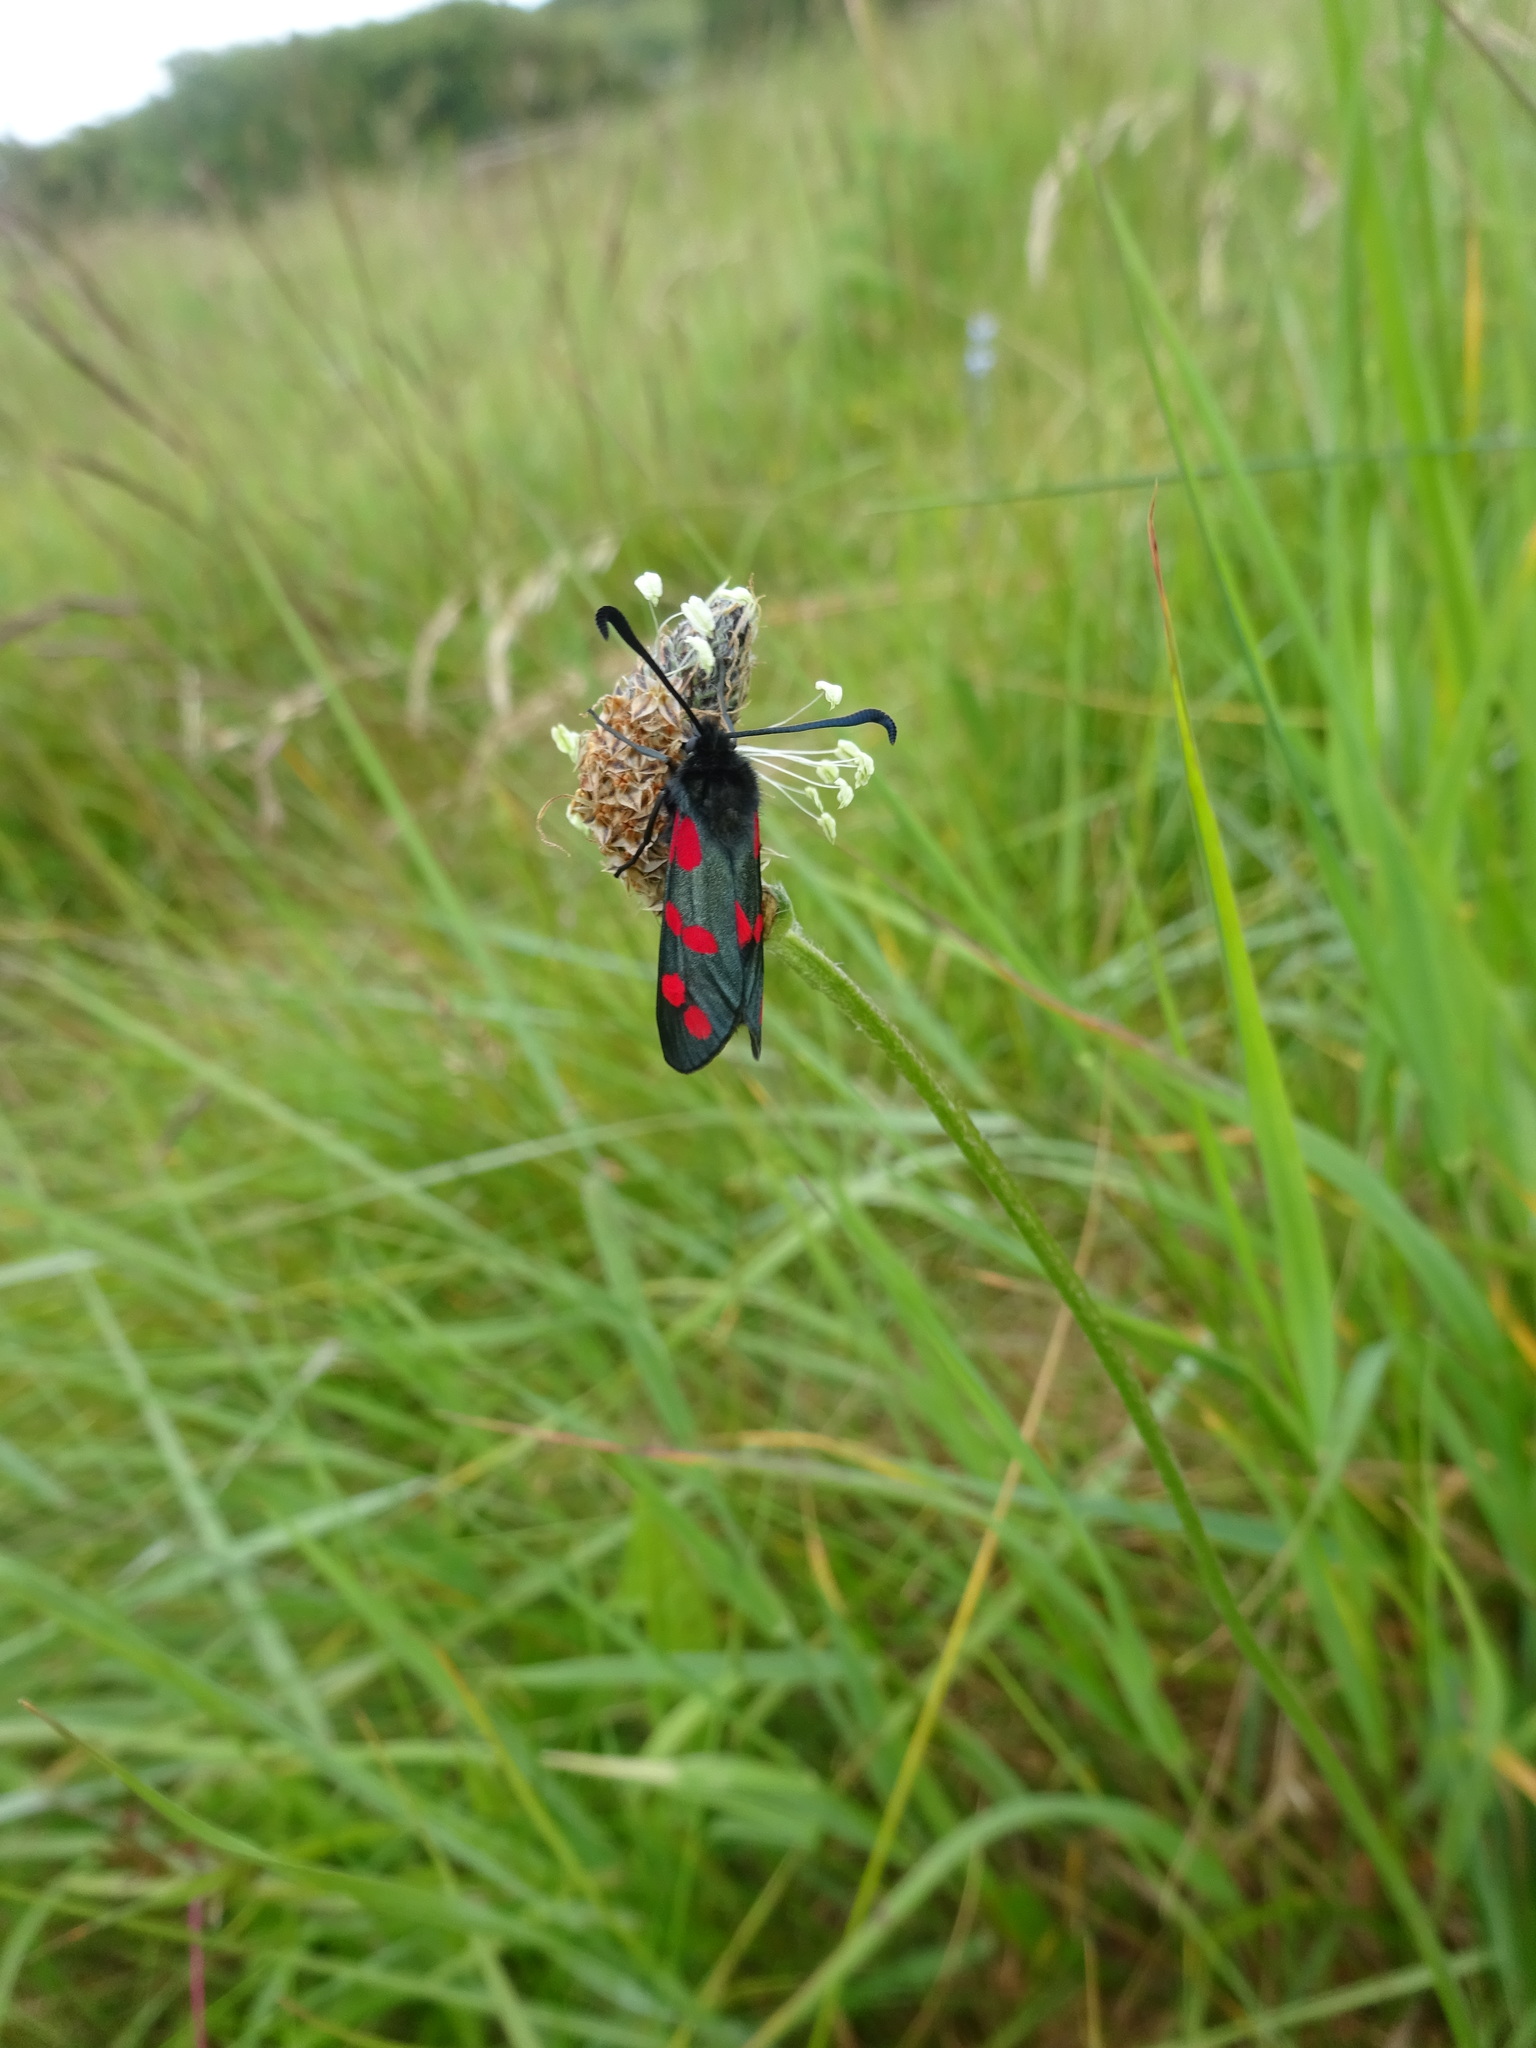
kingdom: Animalia
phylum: Arthropoda
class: Insecta
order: Lepidoptera
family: Zygaenidae
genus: Zygaena
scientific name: Zygaena filipendulae
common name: Six-spot burnet
